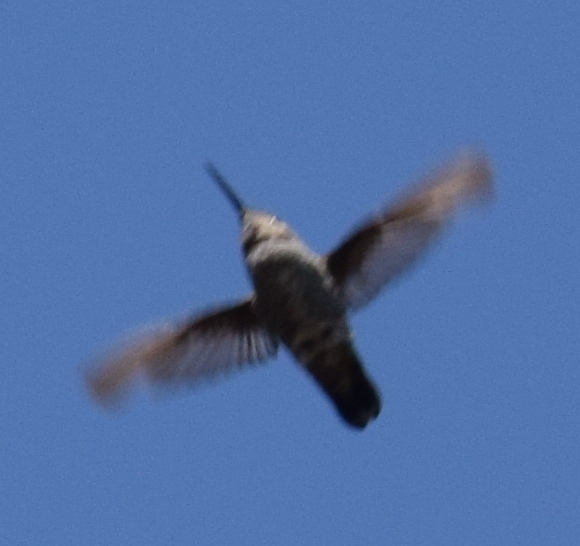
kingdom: Animalia
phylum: Chordata
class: Aves
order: Apodiformes
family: Trochilidae
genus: Calypte
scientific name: Calypte anna
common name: Anna's hummingbird
